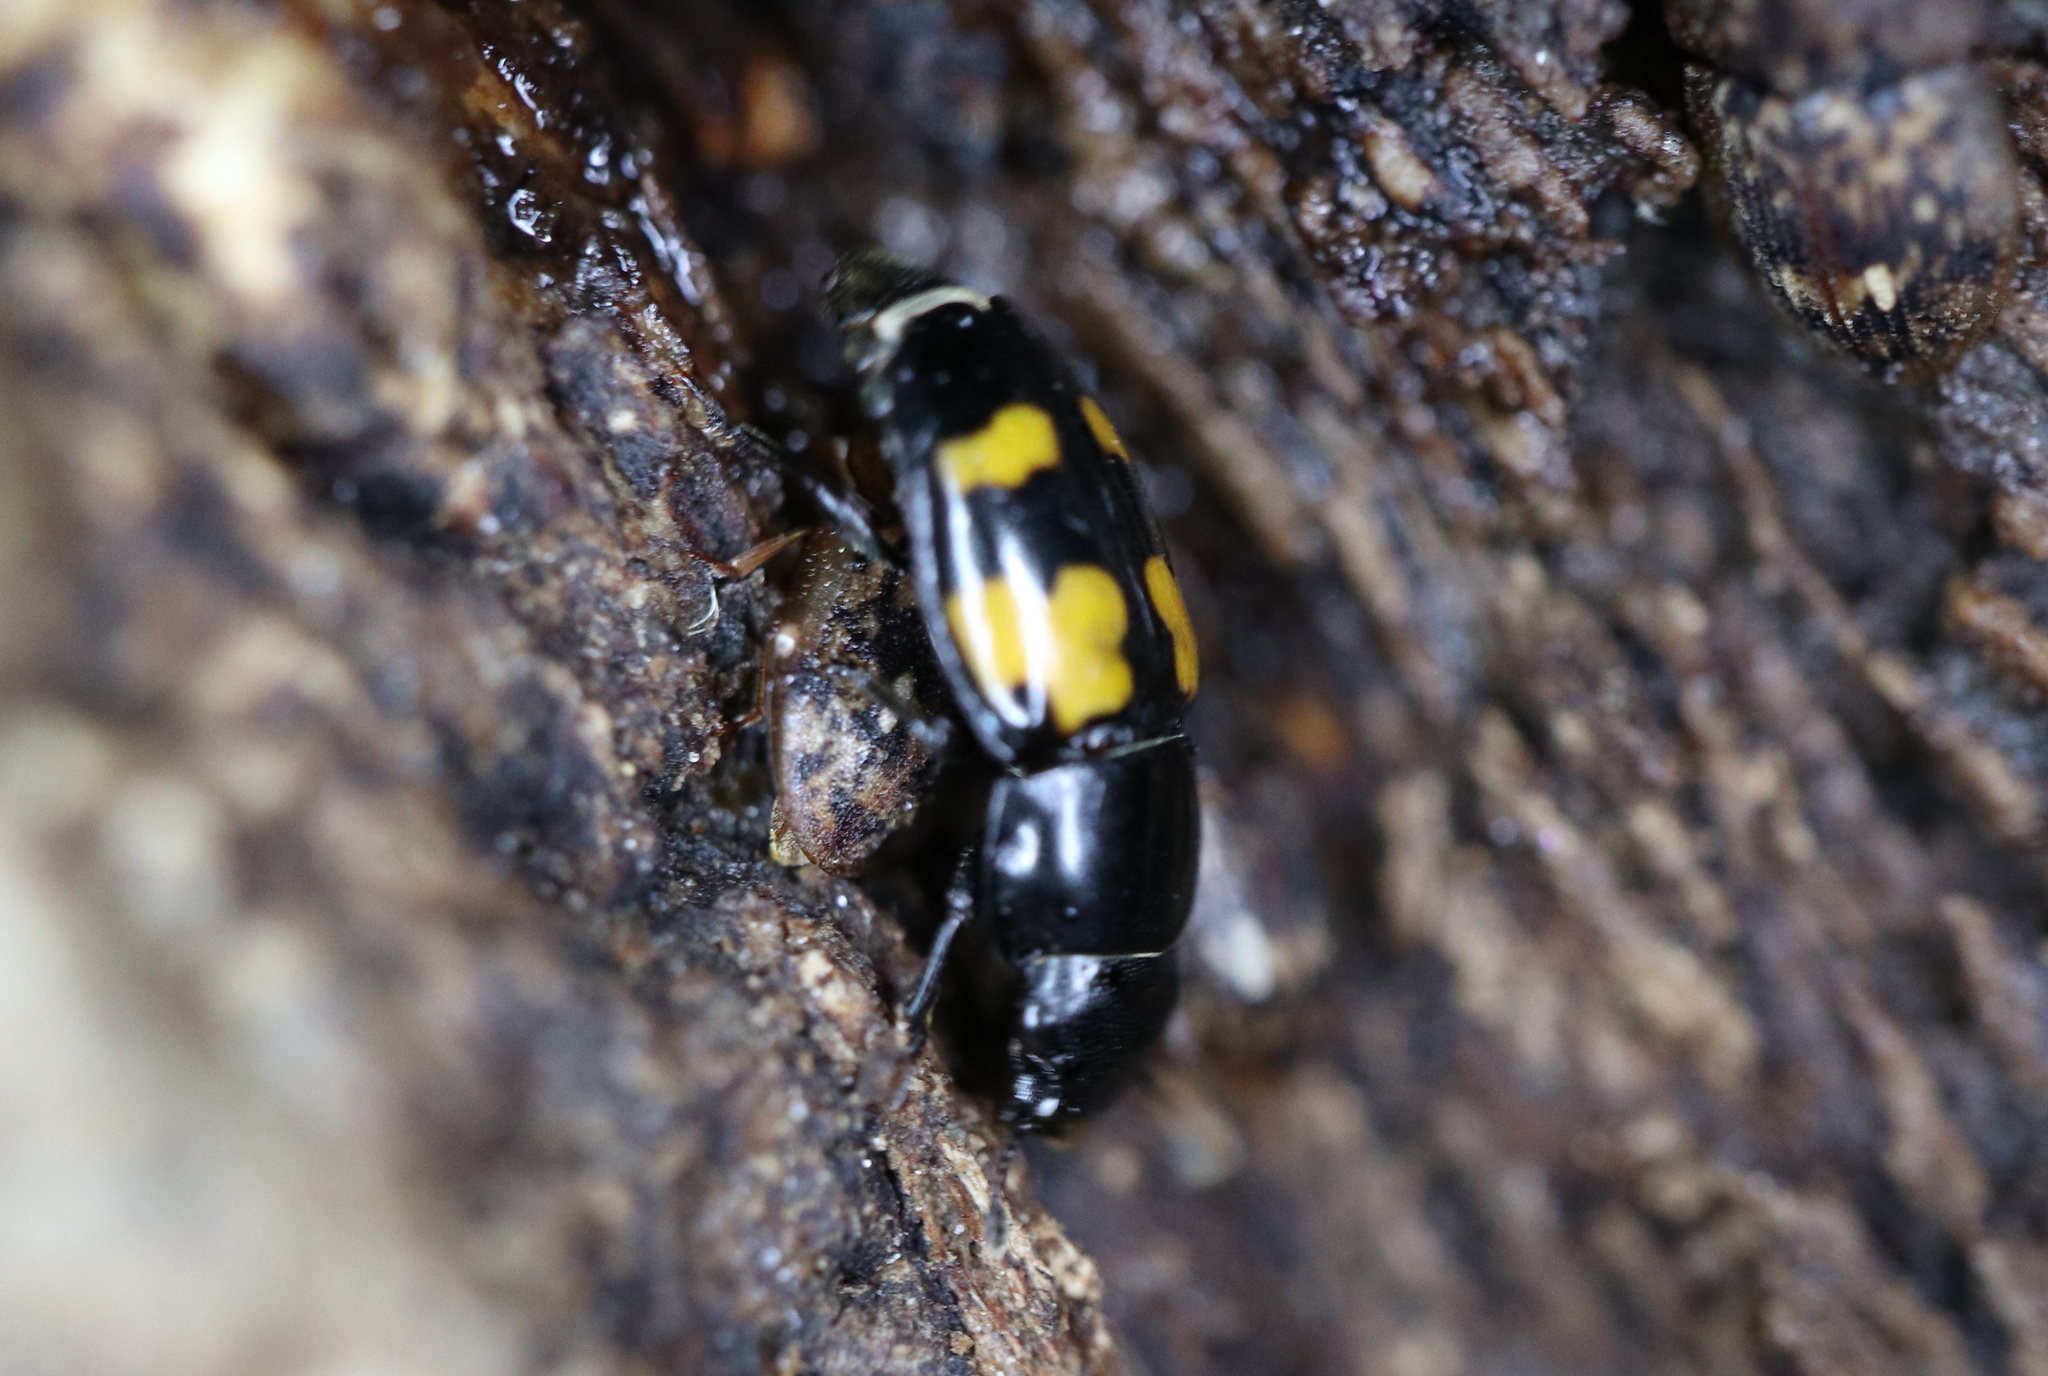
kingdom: Animalia
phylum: Arthropoda
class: Insecta
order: Coleoptera
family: Nitidulidae
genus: Glischrochilus
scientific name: Glischrochilus fasciatus
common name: Picnic beetle
